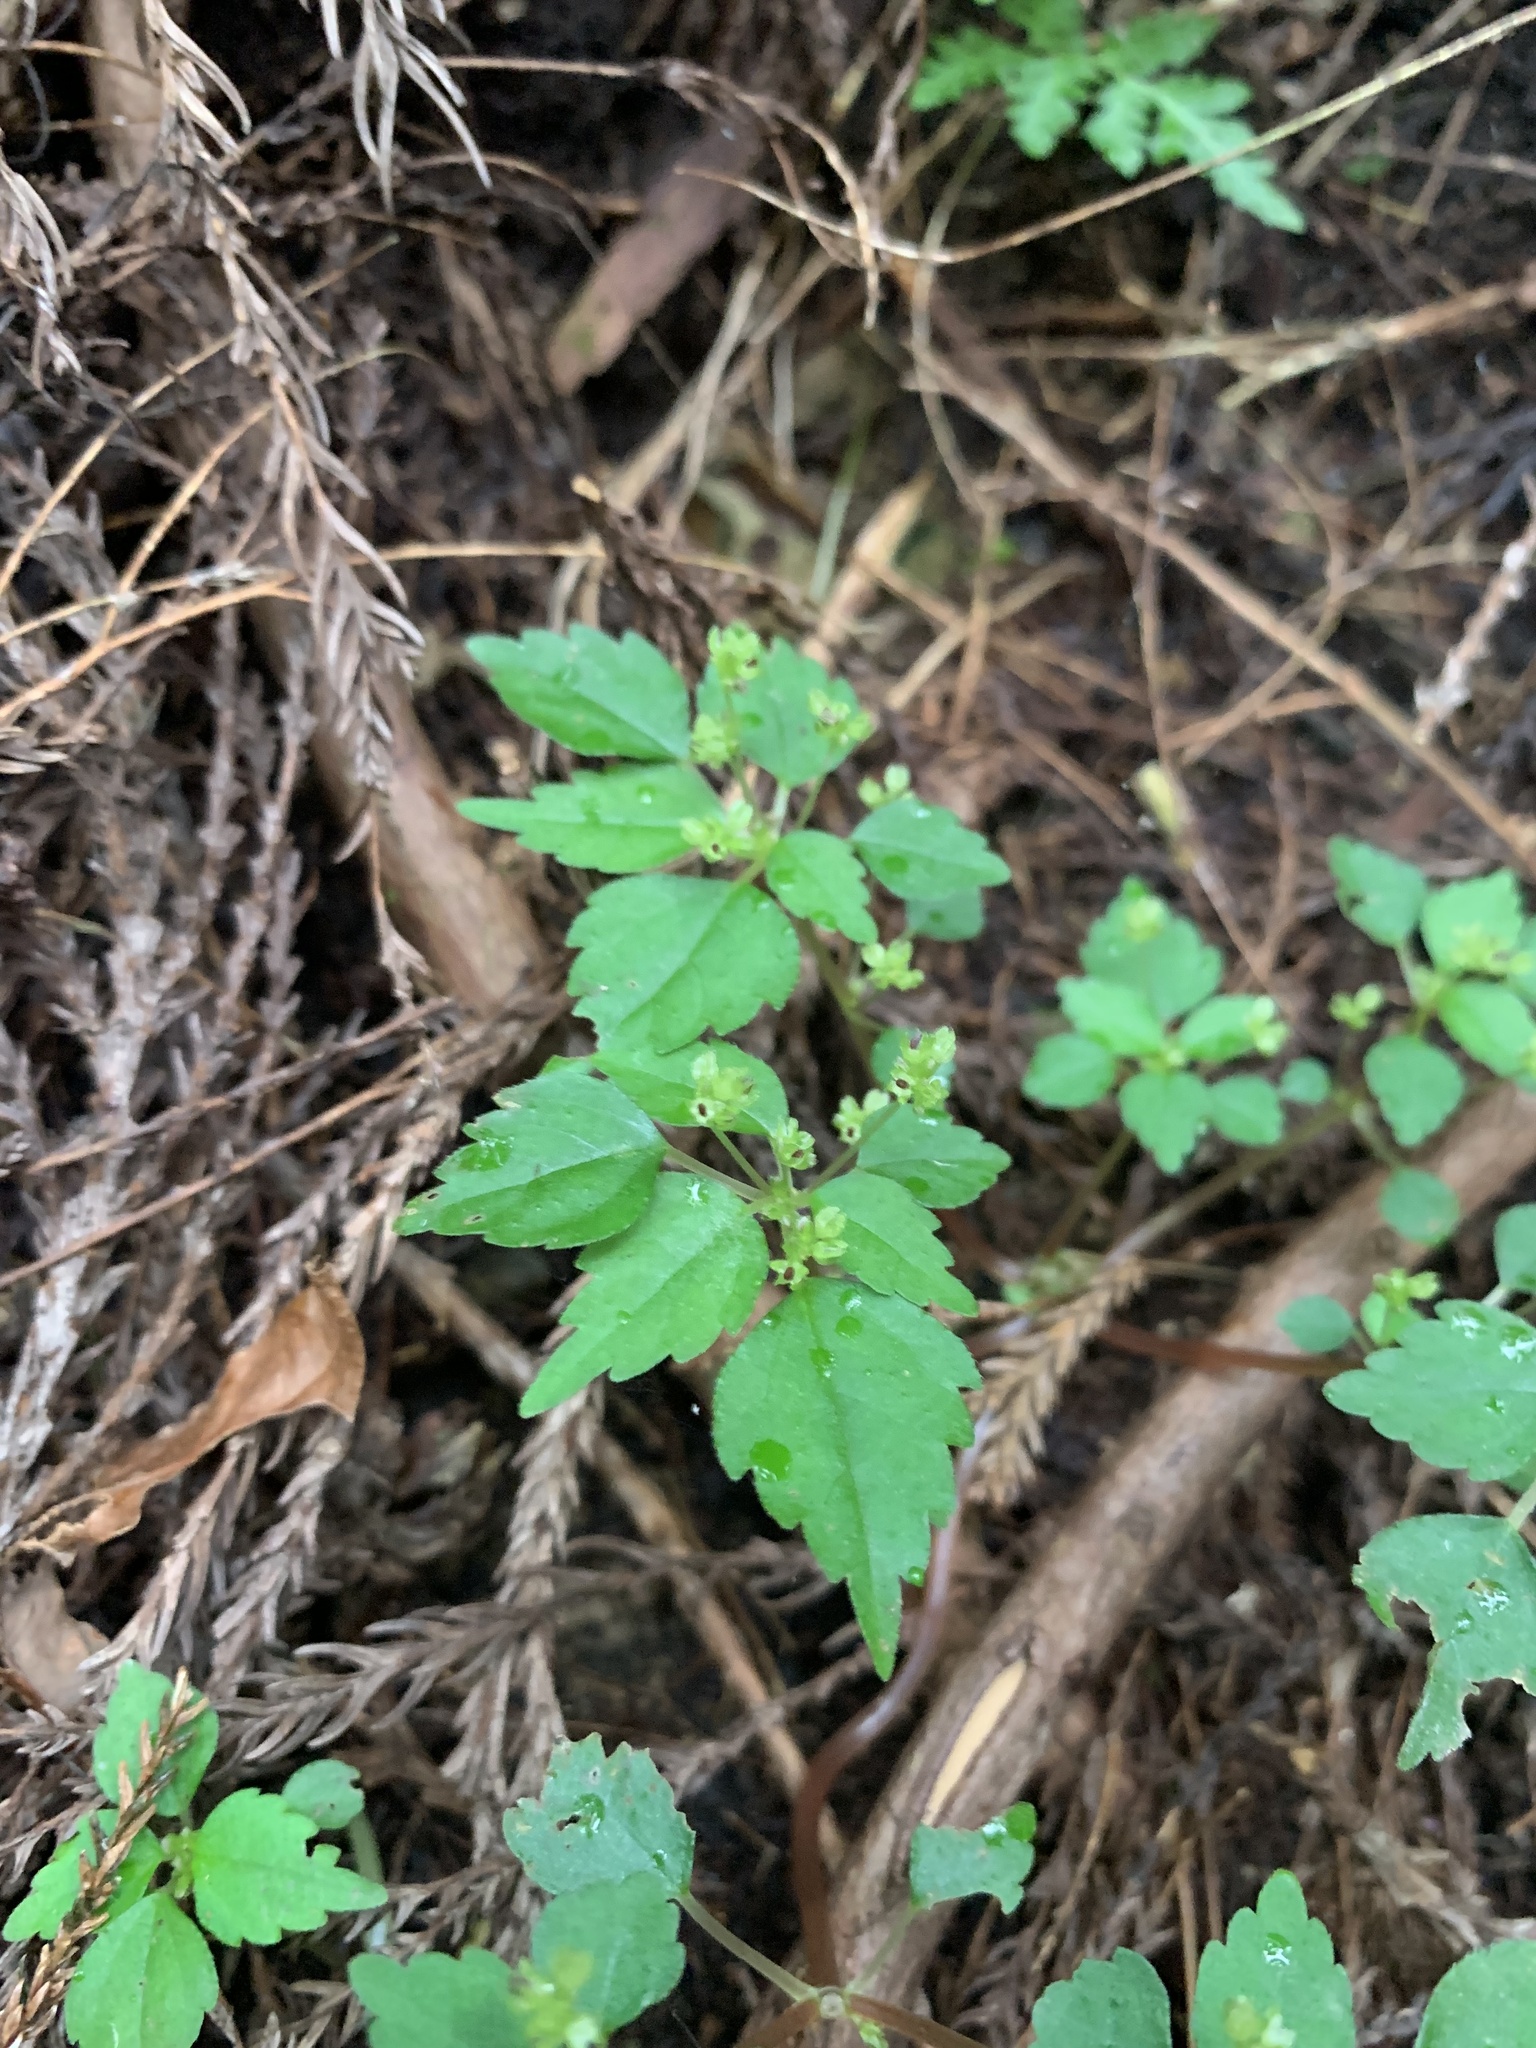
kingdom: Plantae
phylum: Tracheophyta
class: Magnoliopsida
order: Rosales
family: Urticaceae
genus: Achudemia
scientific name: Achudemia japonica
